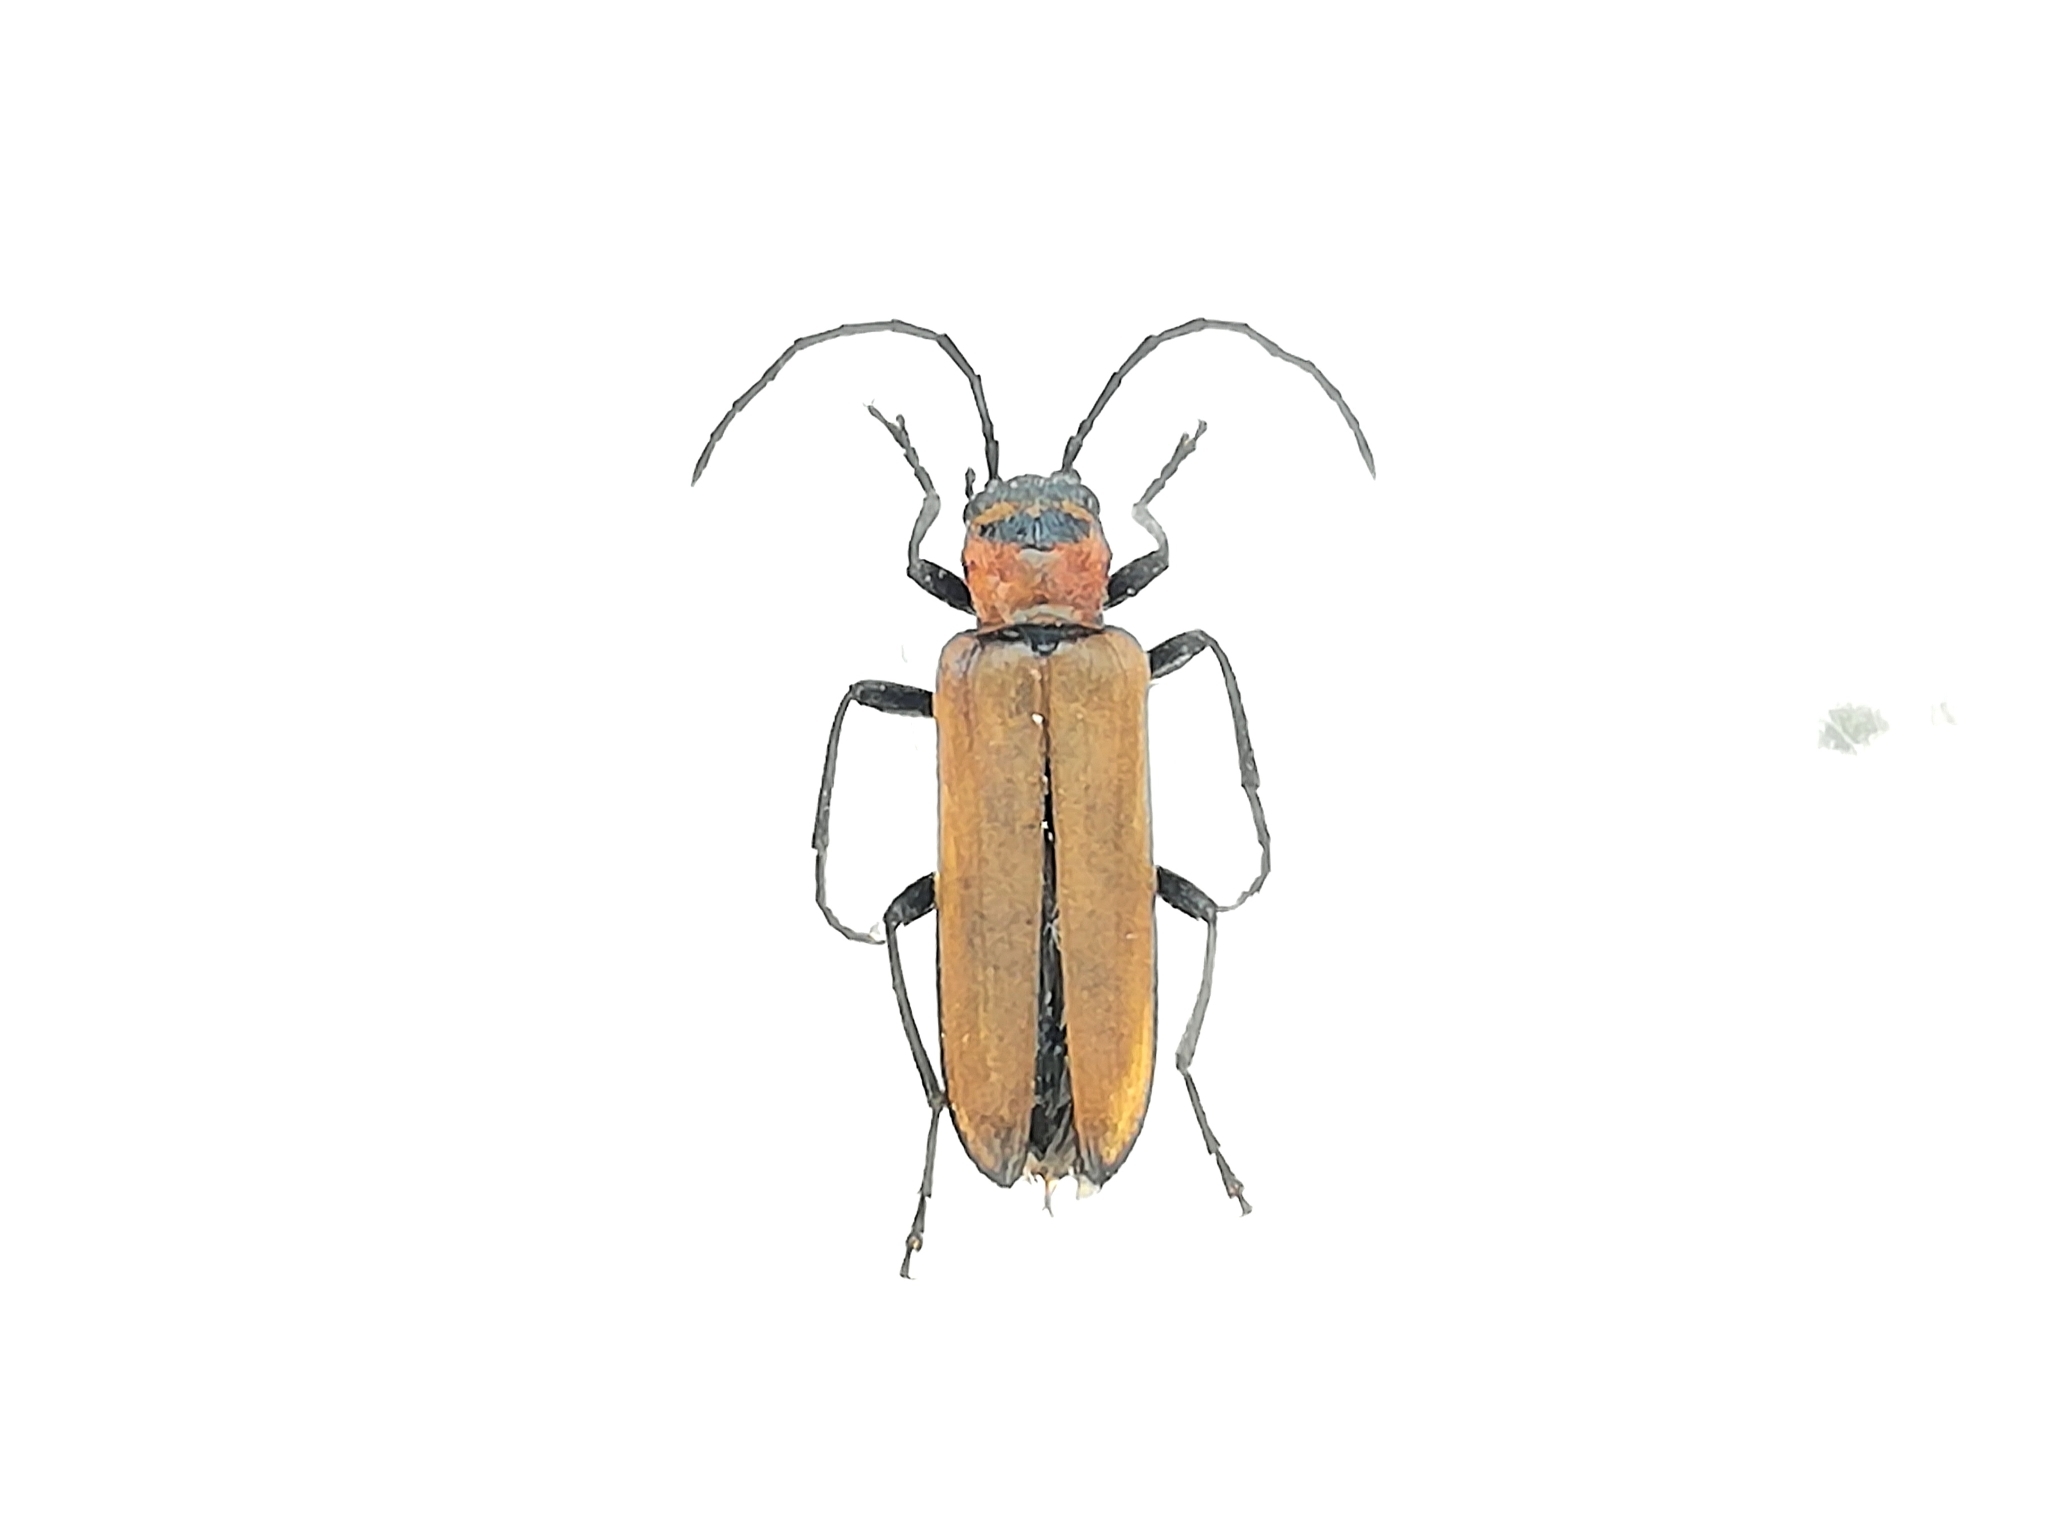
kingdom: Animalia
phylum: Arthropoda
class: Insecta
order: Coleoptera
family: Oedemeridae
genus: Anogcodes
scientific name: Anogcodes ustulatus
